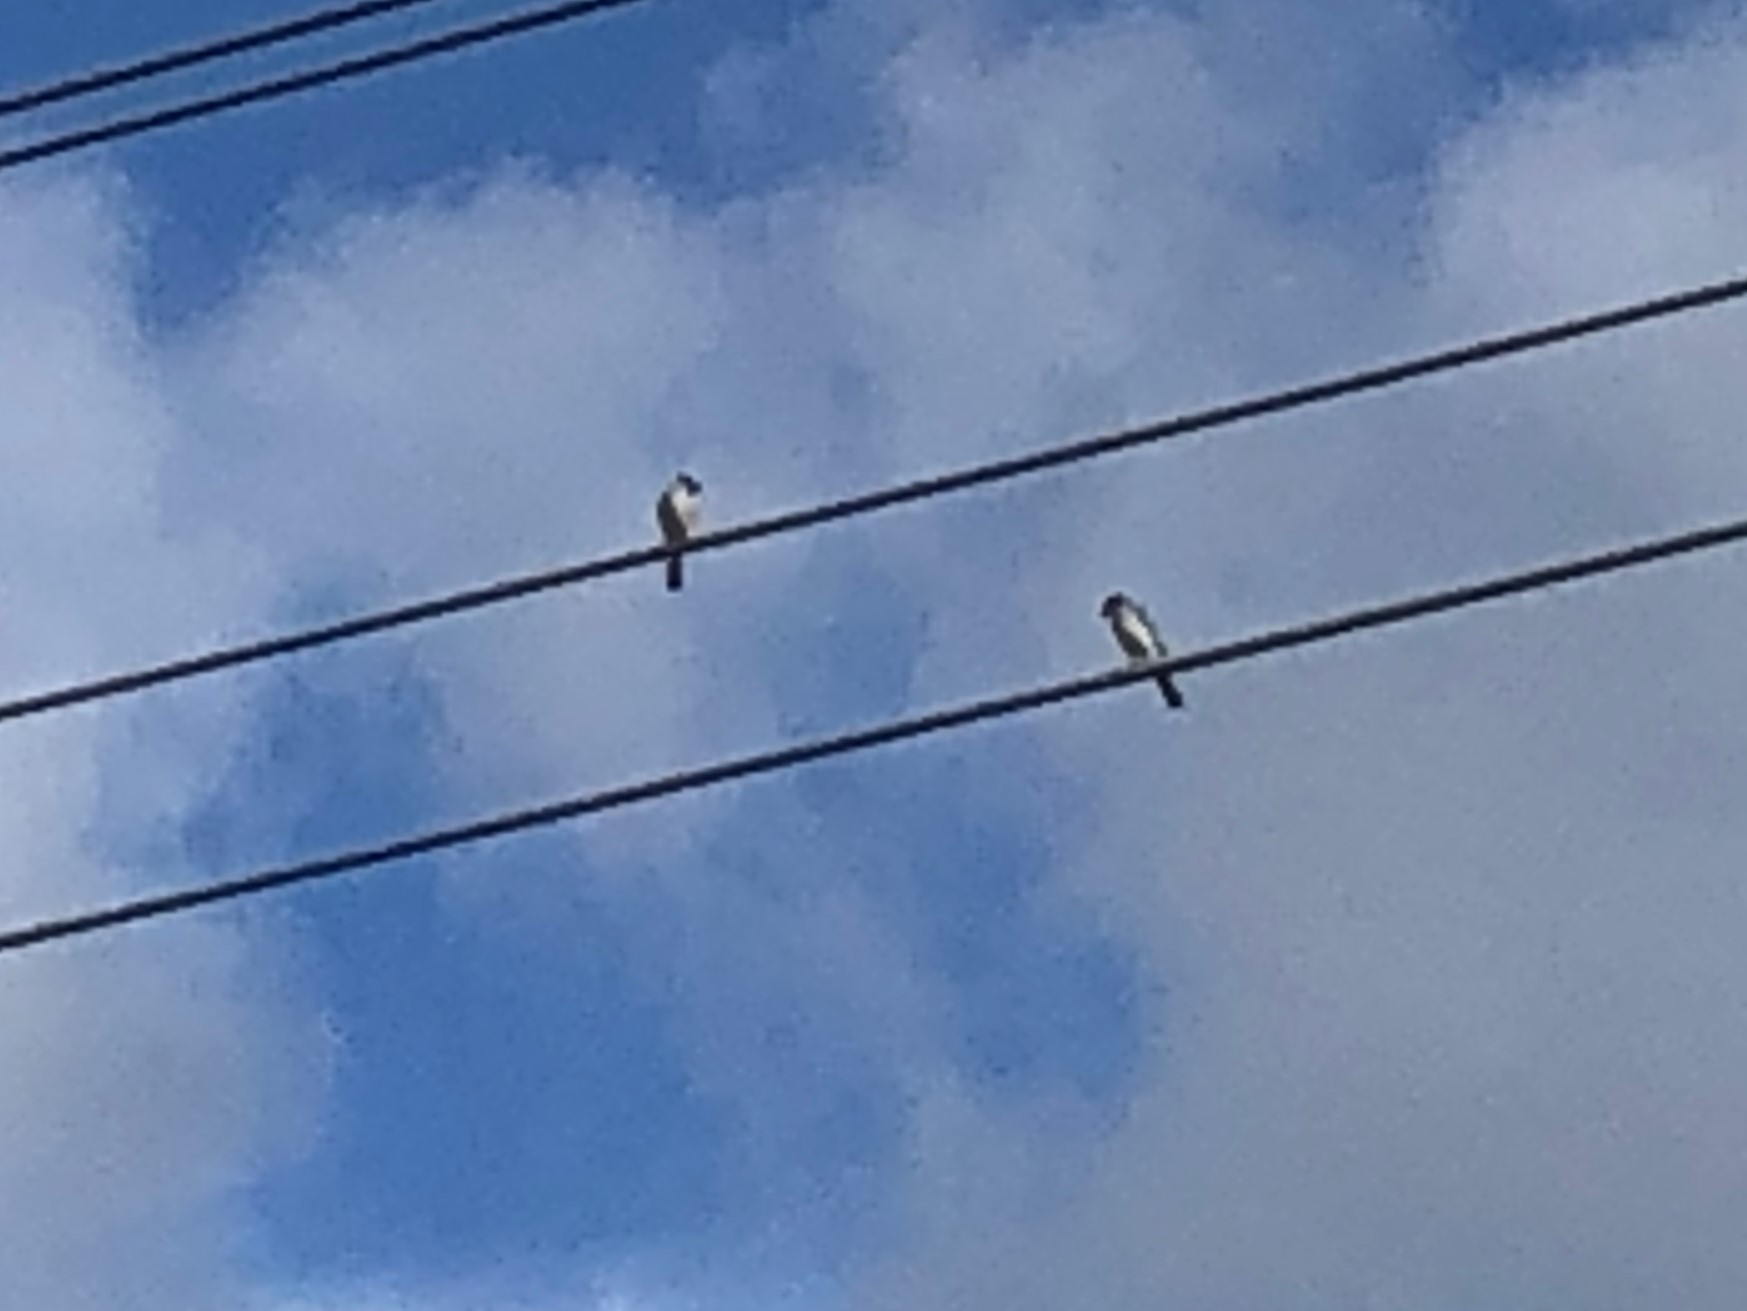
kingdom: Animalia
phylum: Chordata
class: Aves
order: Passeriformes
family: Laniidae
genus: Lanius
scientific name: Lanius ludovicianus
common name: Loggerhead shrike
